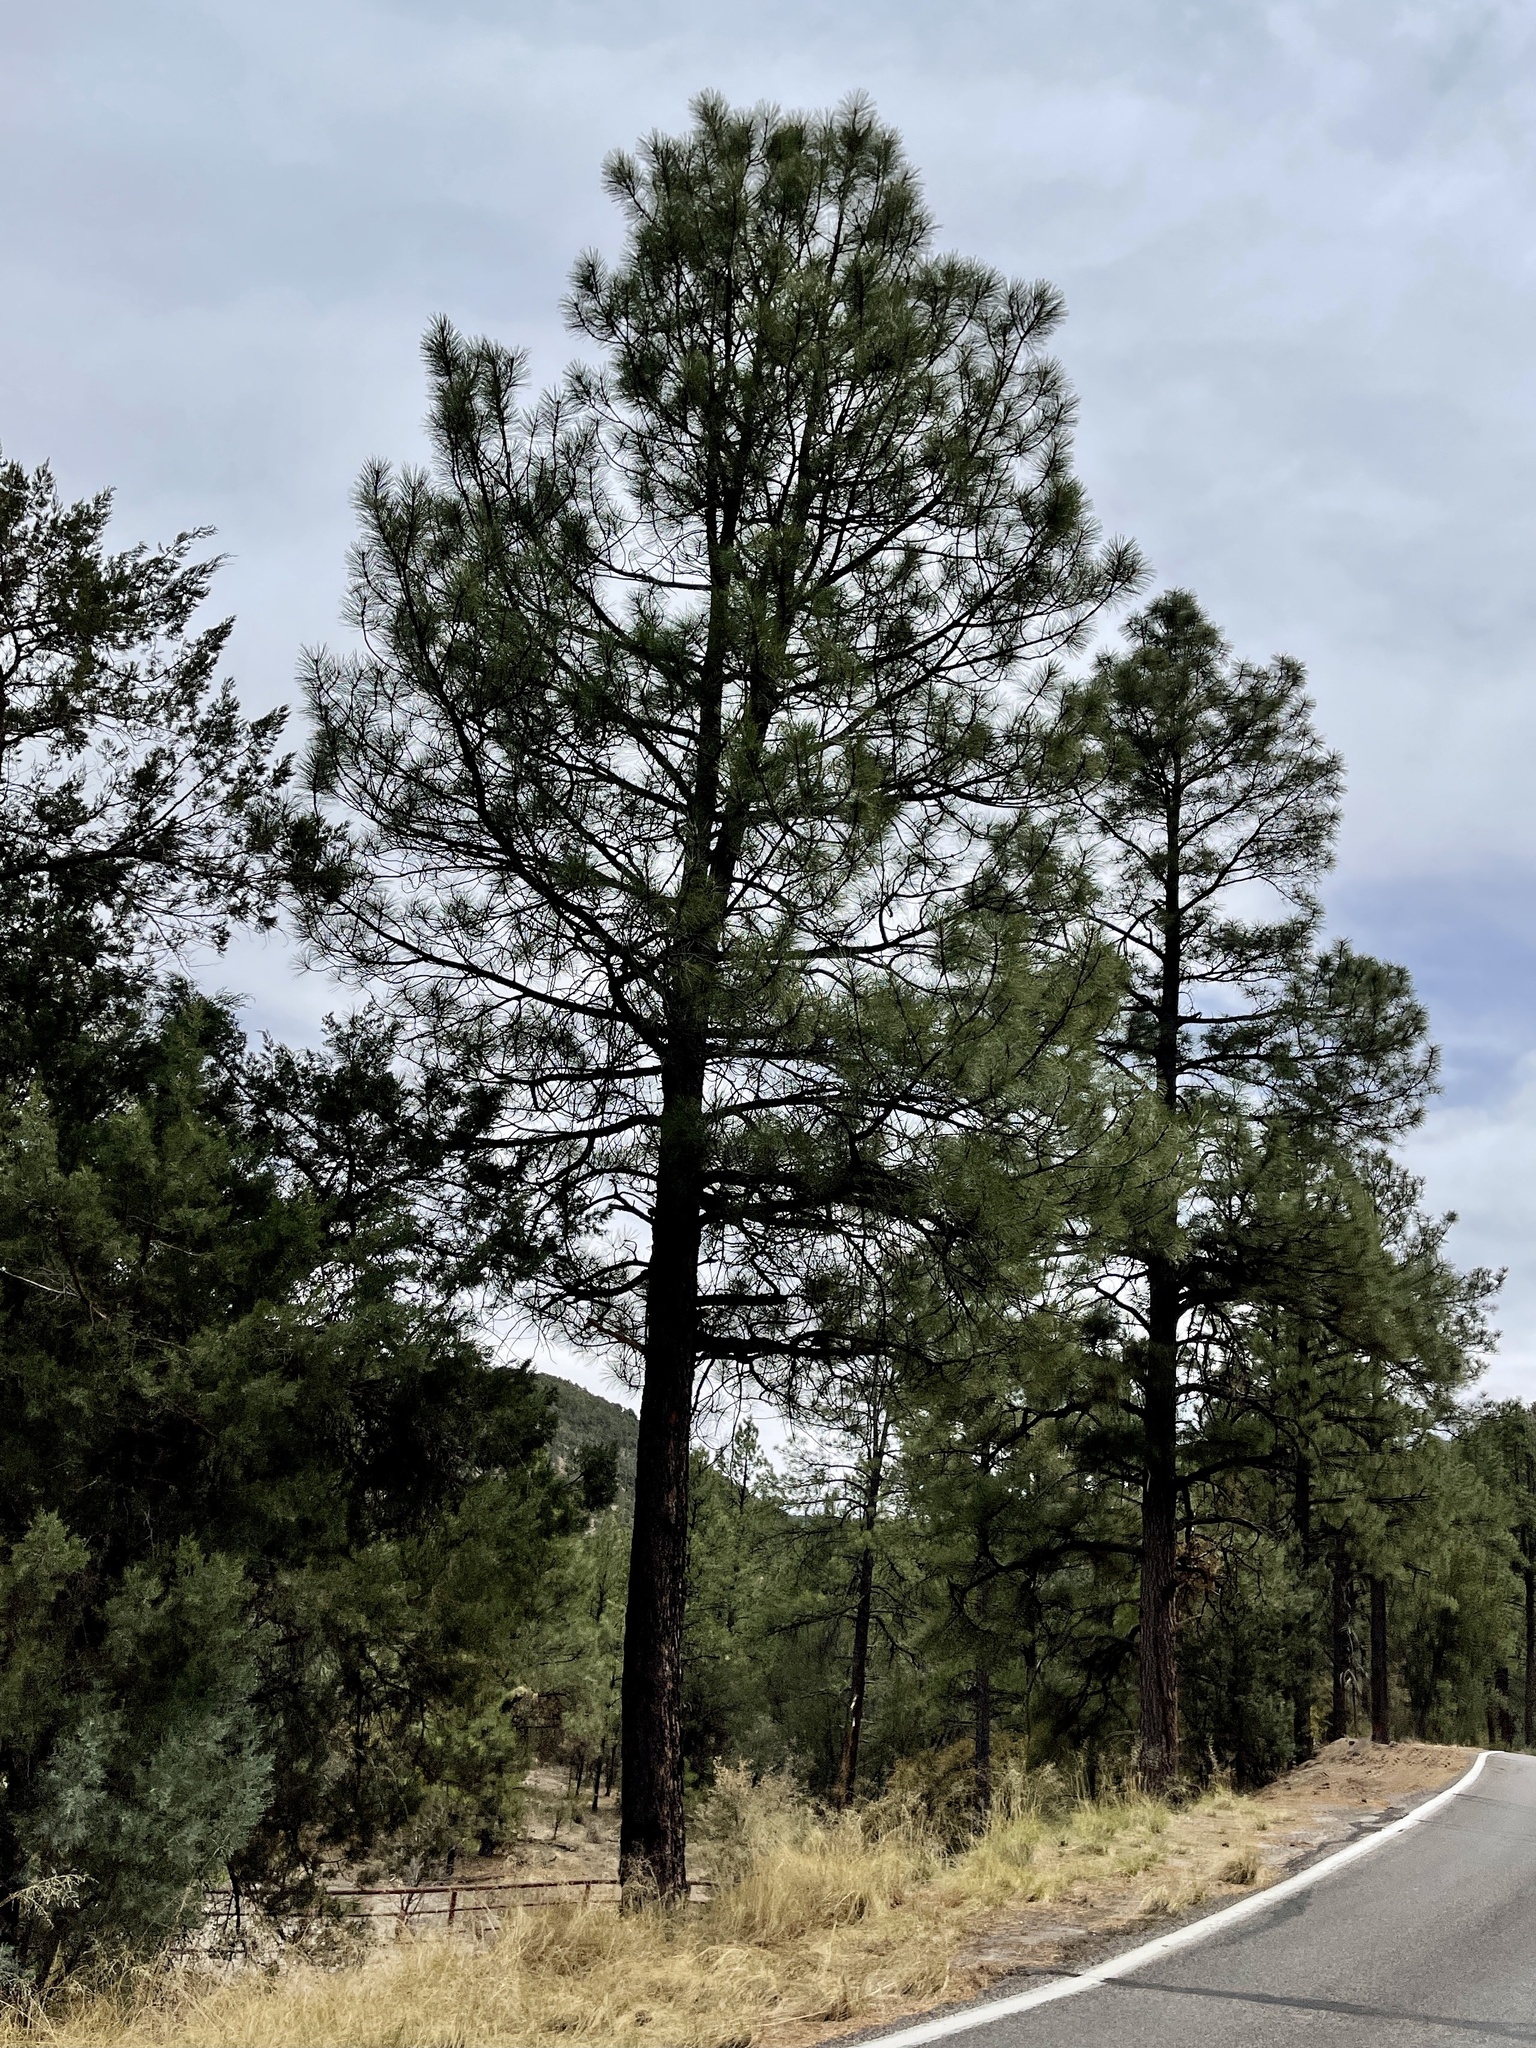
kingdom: Plantae
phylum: Tracheophyta
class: Pinopsida
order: Pinales
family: Pinaceae
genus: Pinus
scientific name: Pinus ponderosa
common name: Western yellow-pine
